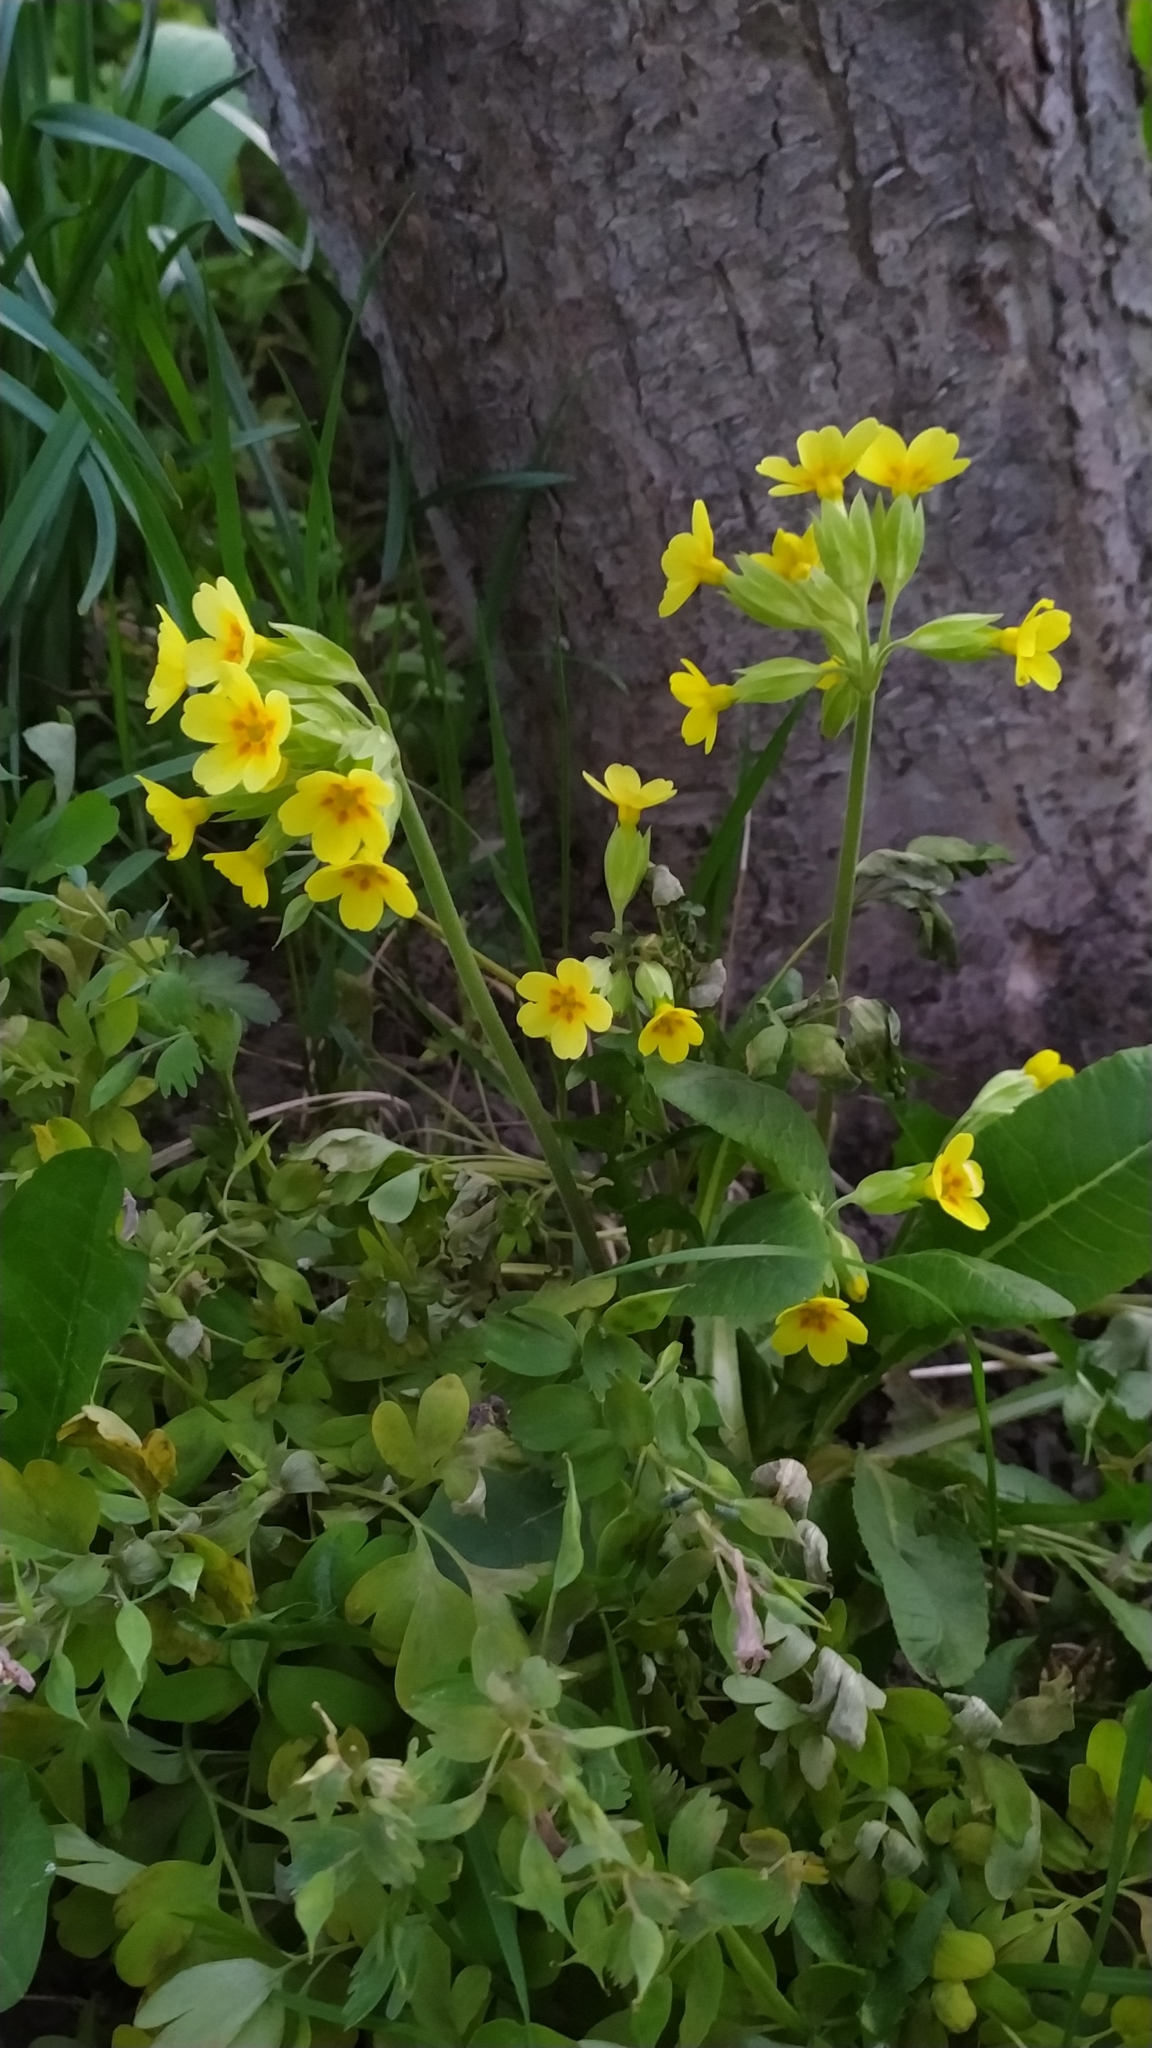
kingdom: Plantae
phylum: Tracheophyta
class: Magnoliopsida
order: Ericales
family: Primulaceae
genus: Primula
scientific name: Primula veris
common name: Cowslip
